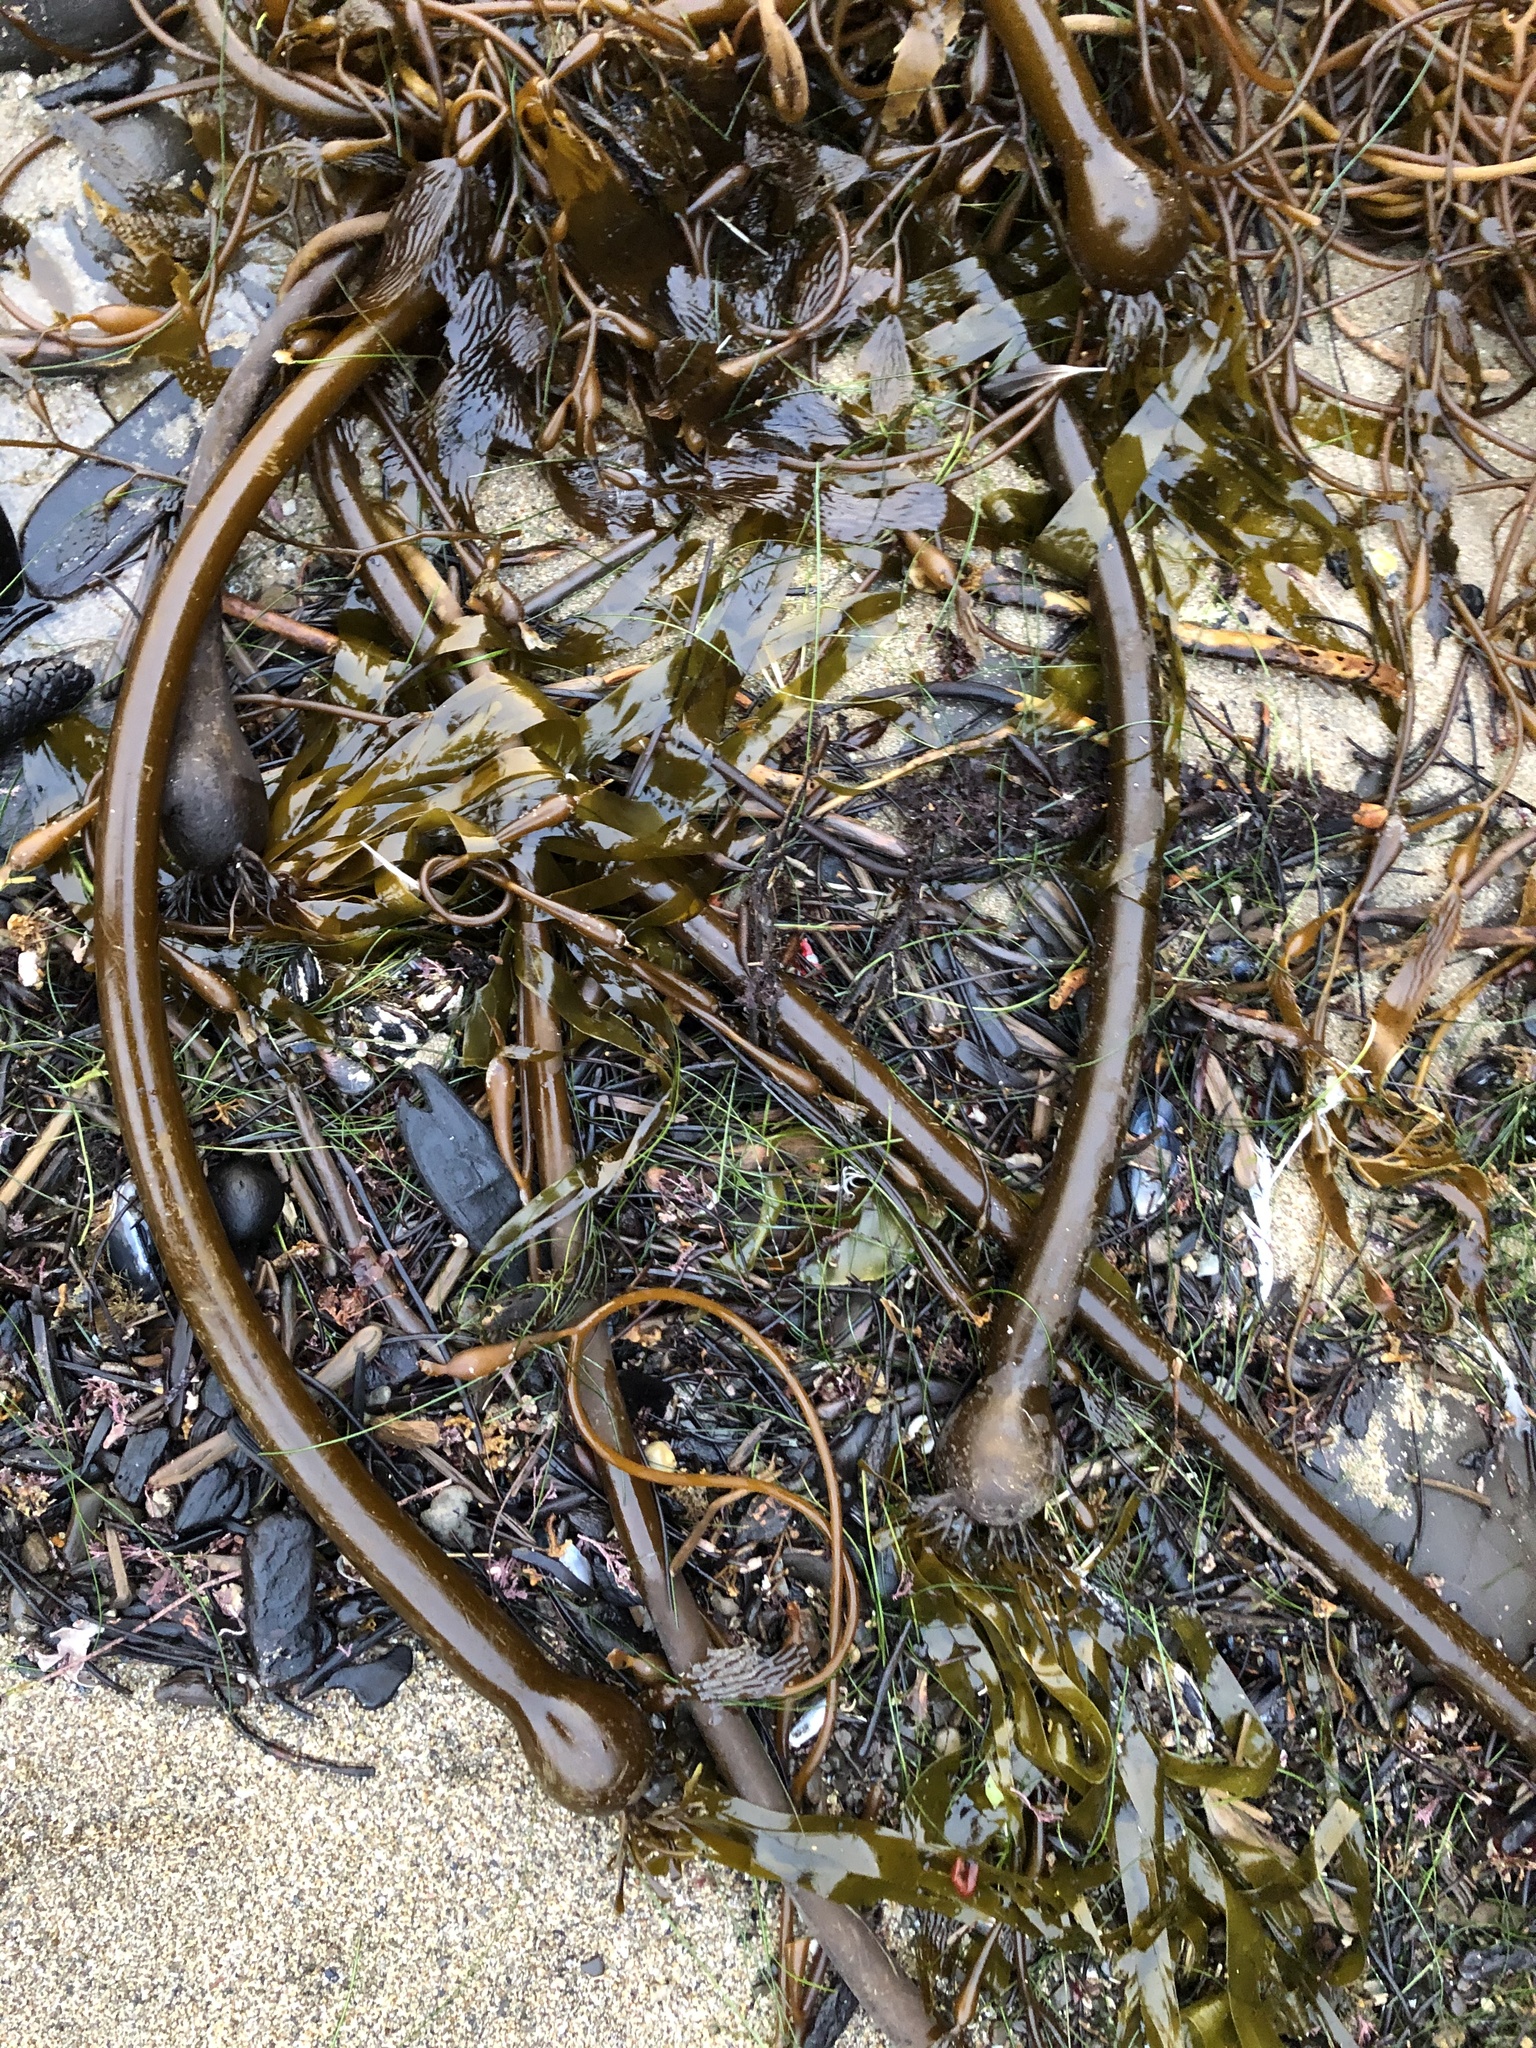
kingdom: Chromista
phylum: Ochrophyta
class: Phaeophyceae
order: Laminariales
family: Laminariaceae
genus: Nereocystis
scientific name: Nereocystis luetkeana
